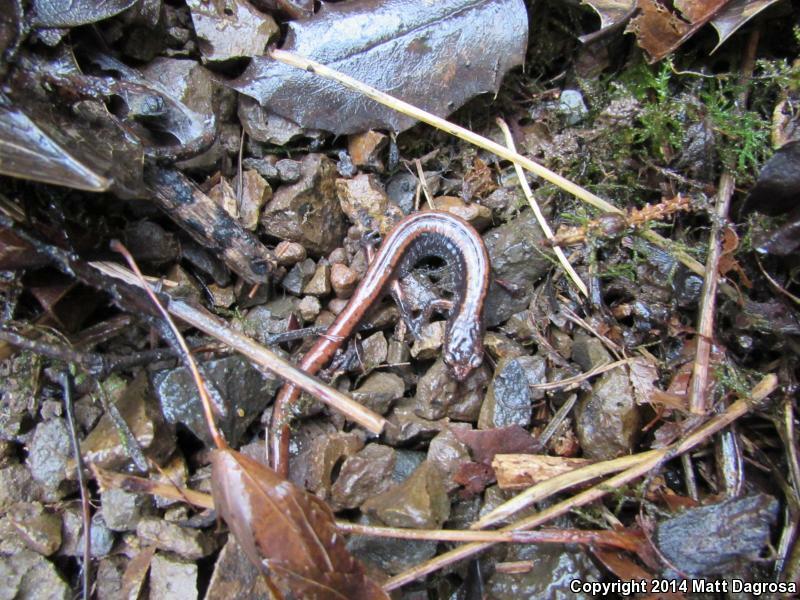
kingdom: Animalia
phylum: Chordata
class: Amphibia
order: Caudata
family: Plethodontidae
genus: Plethodon
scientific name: Plethodon vehiculum
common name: Western red-backed salamander
